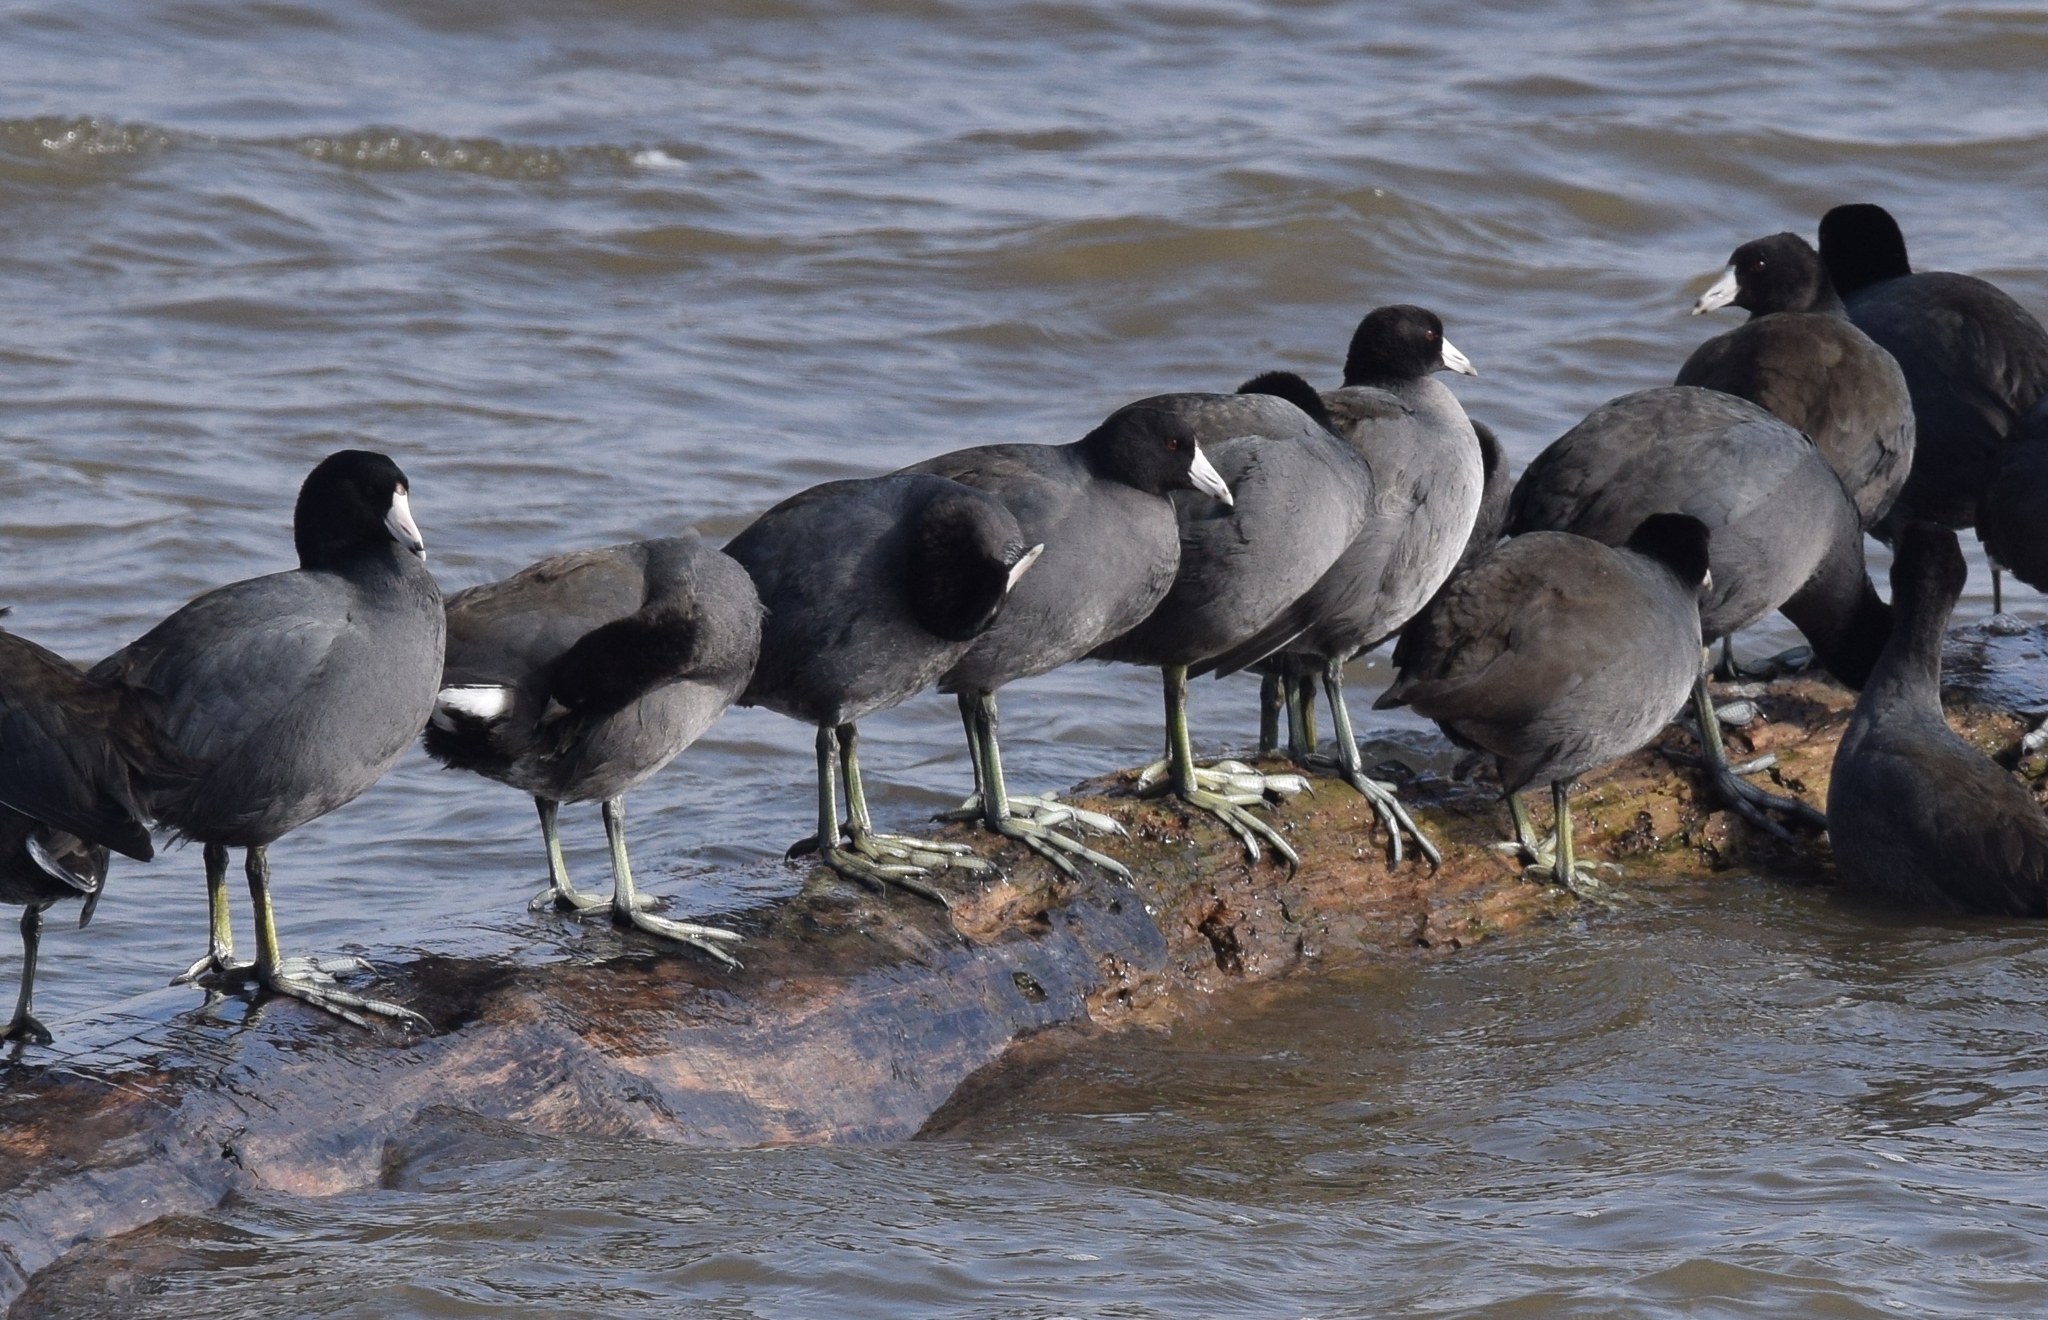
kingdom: Animalia
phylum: Chordata
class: Aves
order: Gruiformes
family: Rallidae
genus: Fulica
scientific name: Fulica americana
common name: American coot
